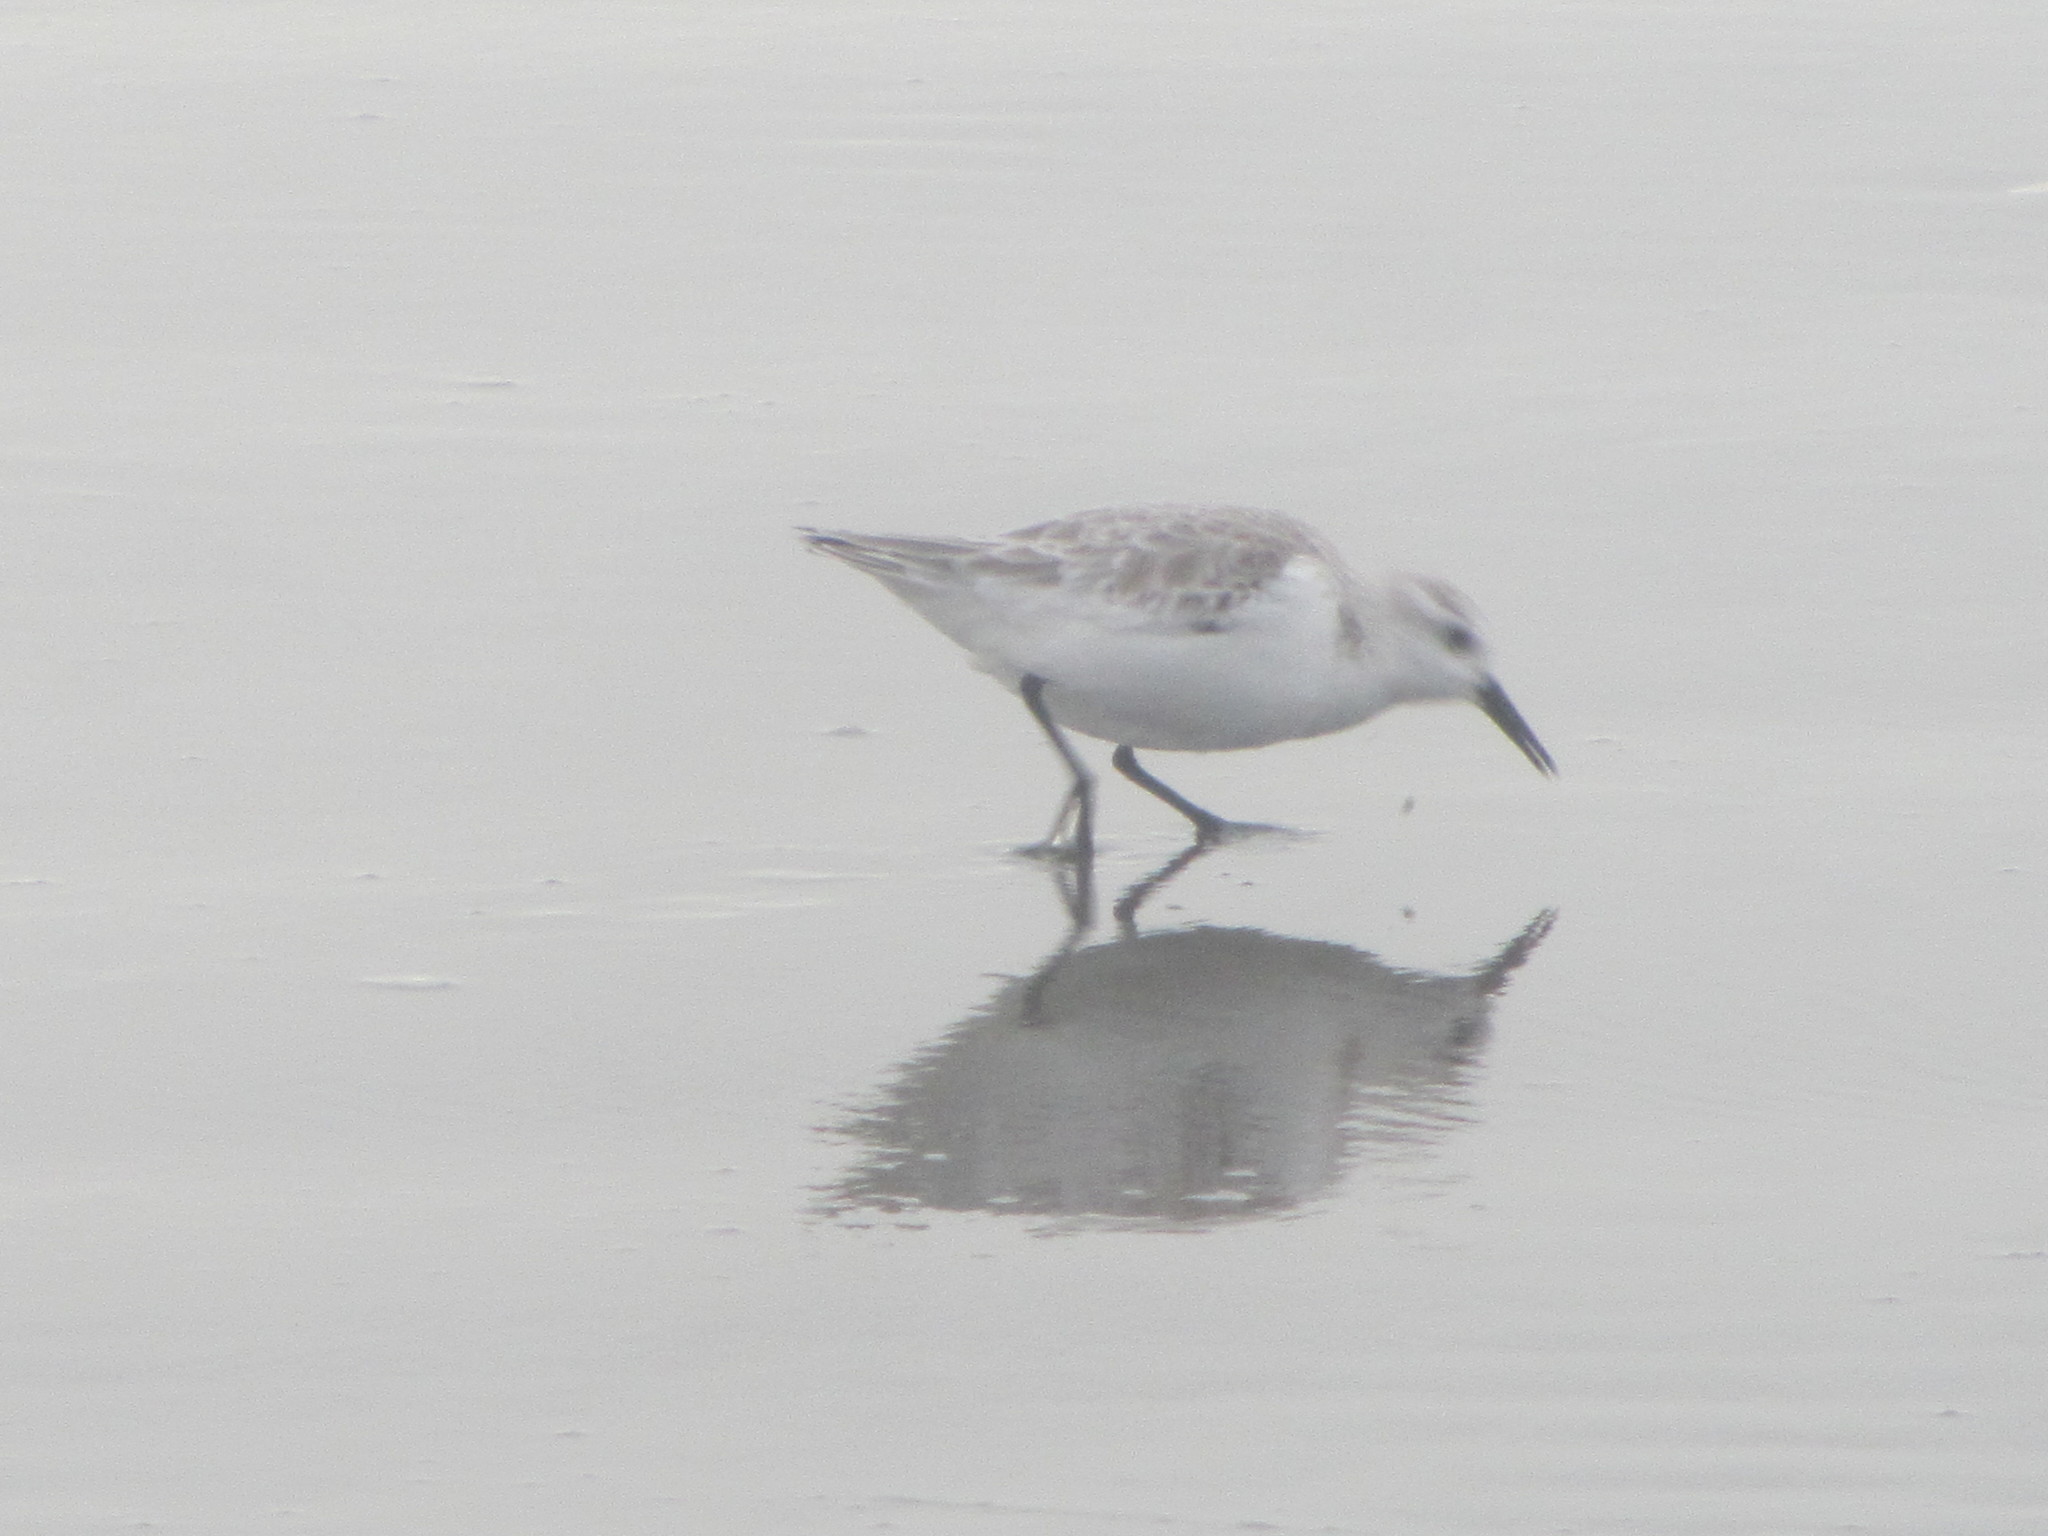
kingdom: Animalia
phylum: Chordata
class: Aves
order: Charadriiformes
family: Scolopacidae
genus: Calidris
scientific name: Calidris alba
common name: Sanderling
